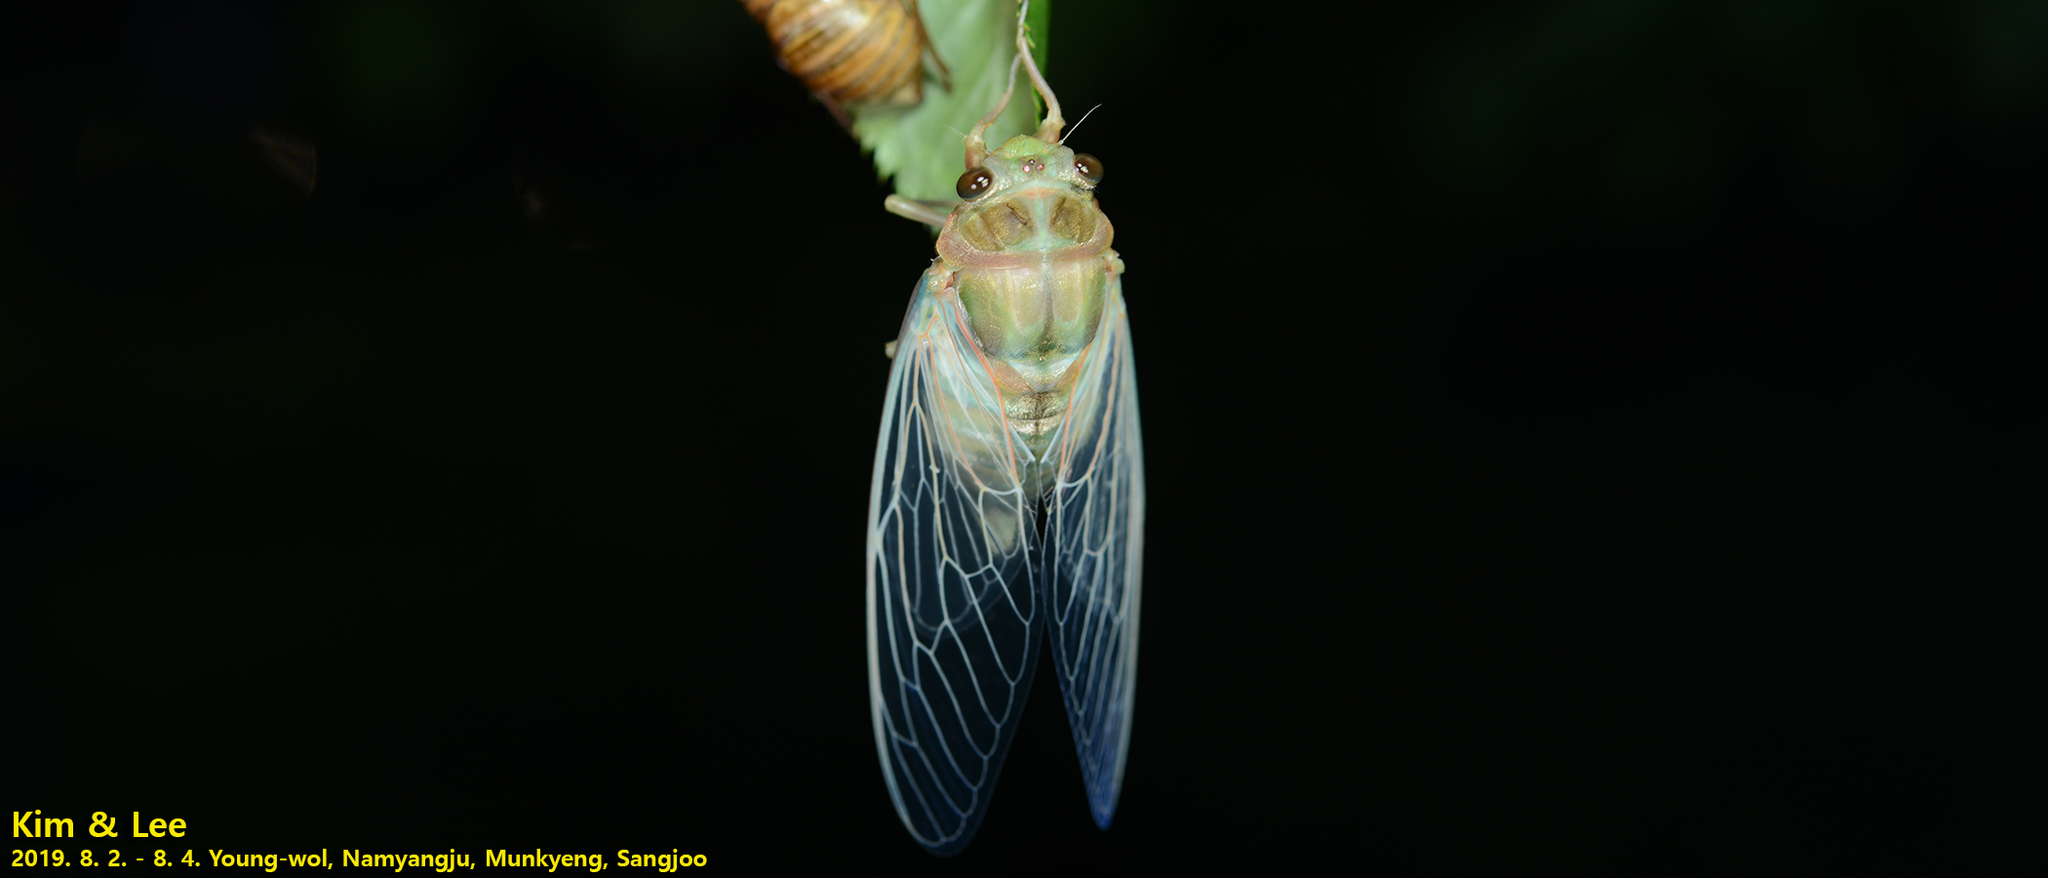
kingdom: Animalia
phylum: Arthropoda
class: Insecta
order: Hemiptera
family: Cicadidae
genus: Hyalessa
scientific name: Hyalessa maculaticollis
